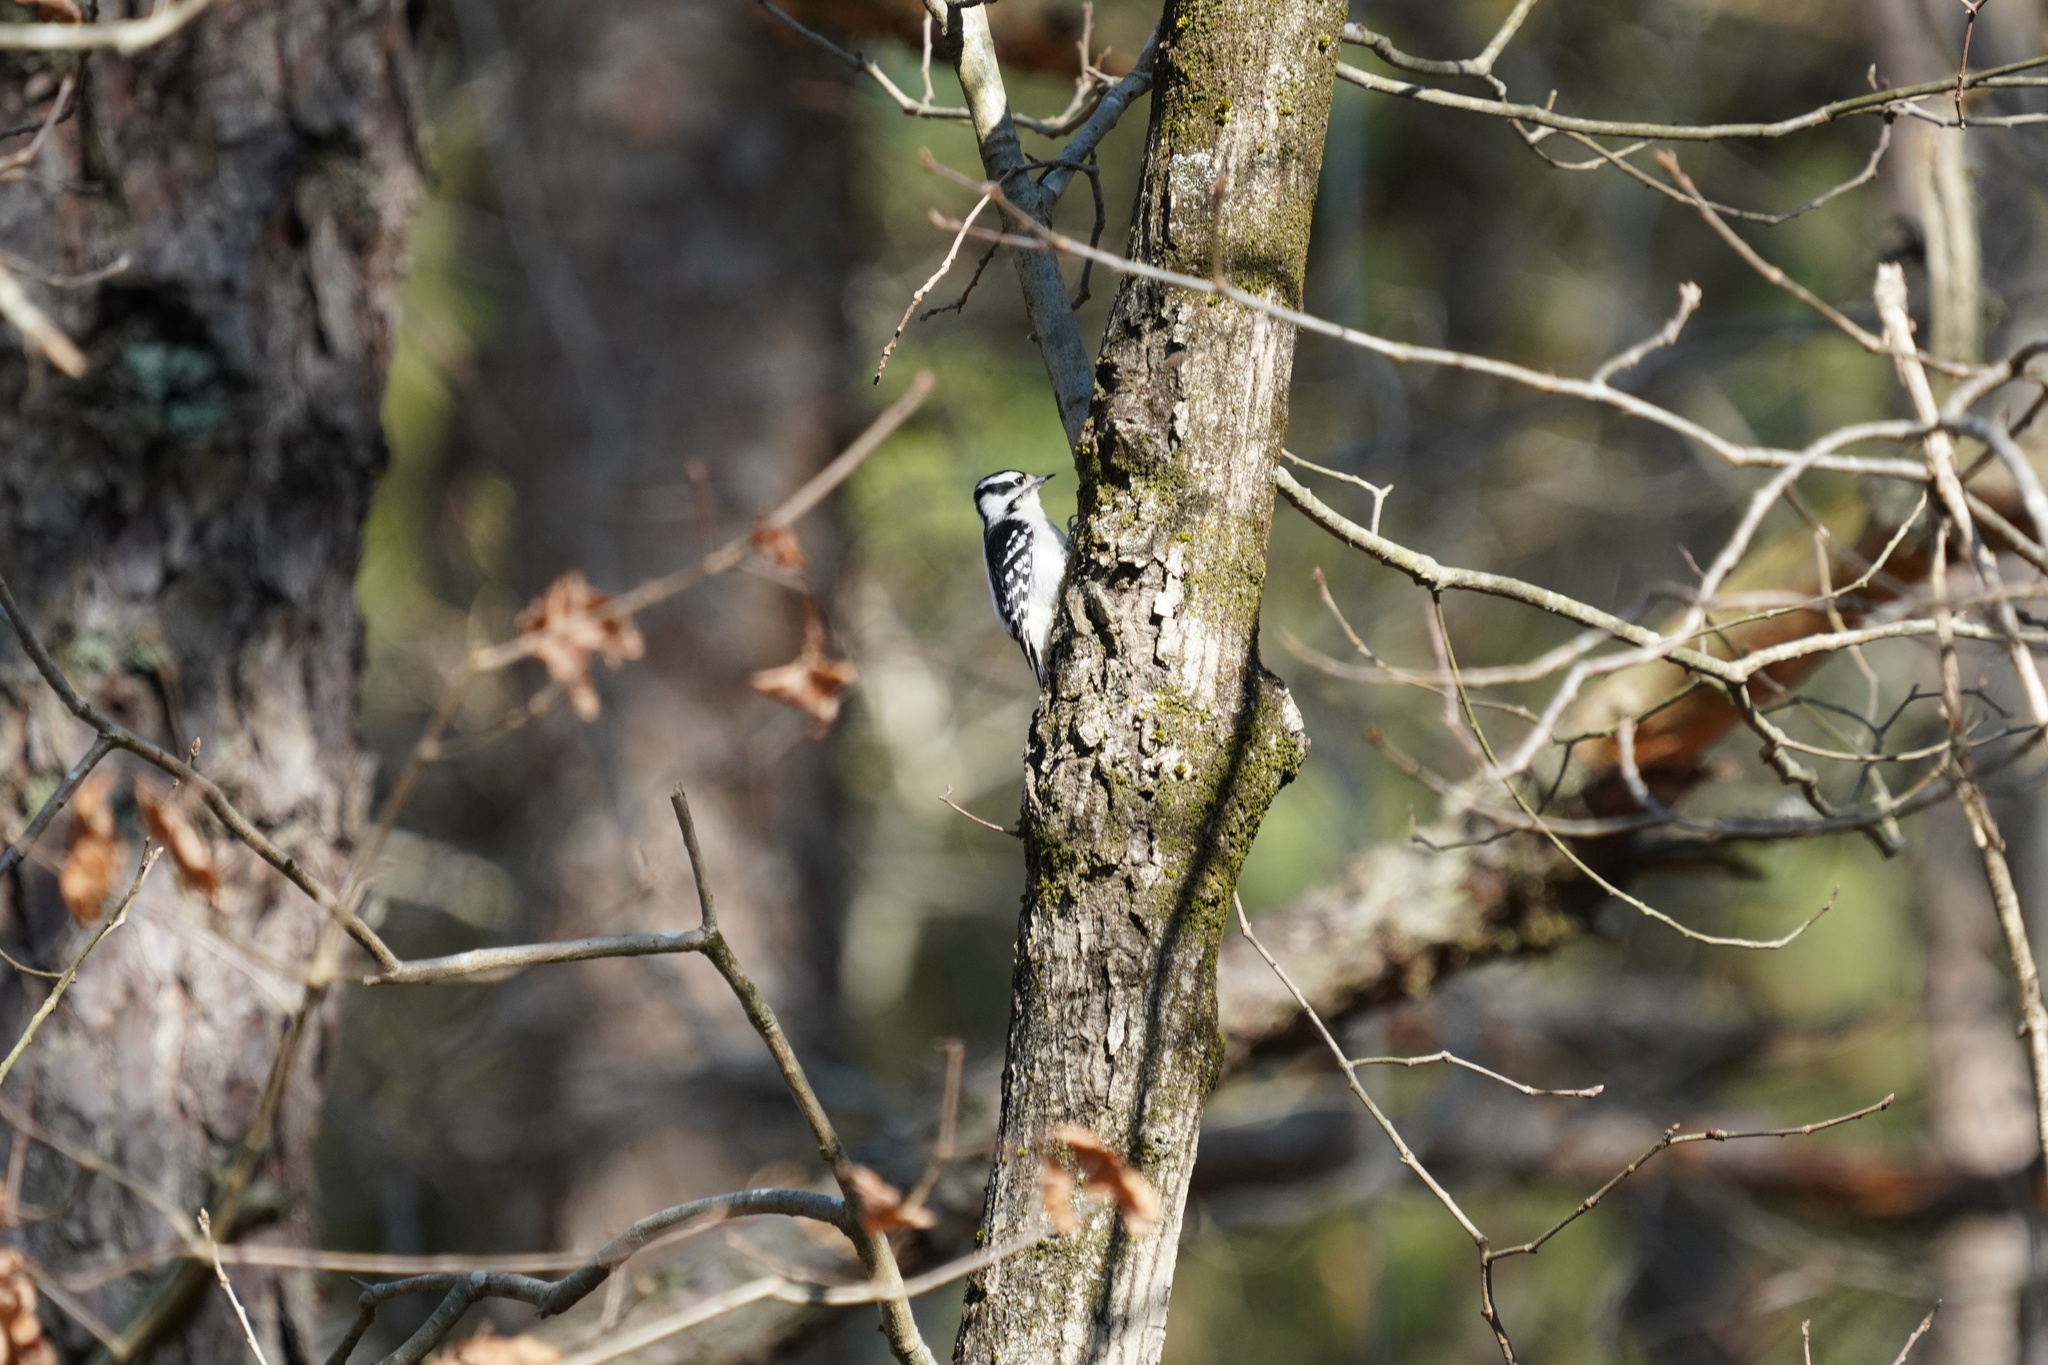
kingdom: Animalia
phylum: Chordata
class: Aves
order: Piciformes
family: Picidae
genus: Dryobates
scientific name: Dryobates pubescens
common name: Downy woodpecker
